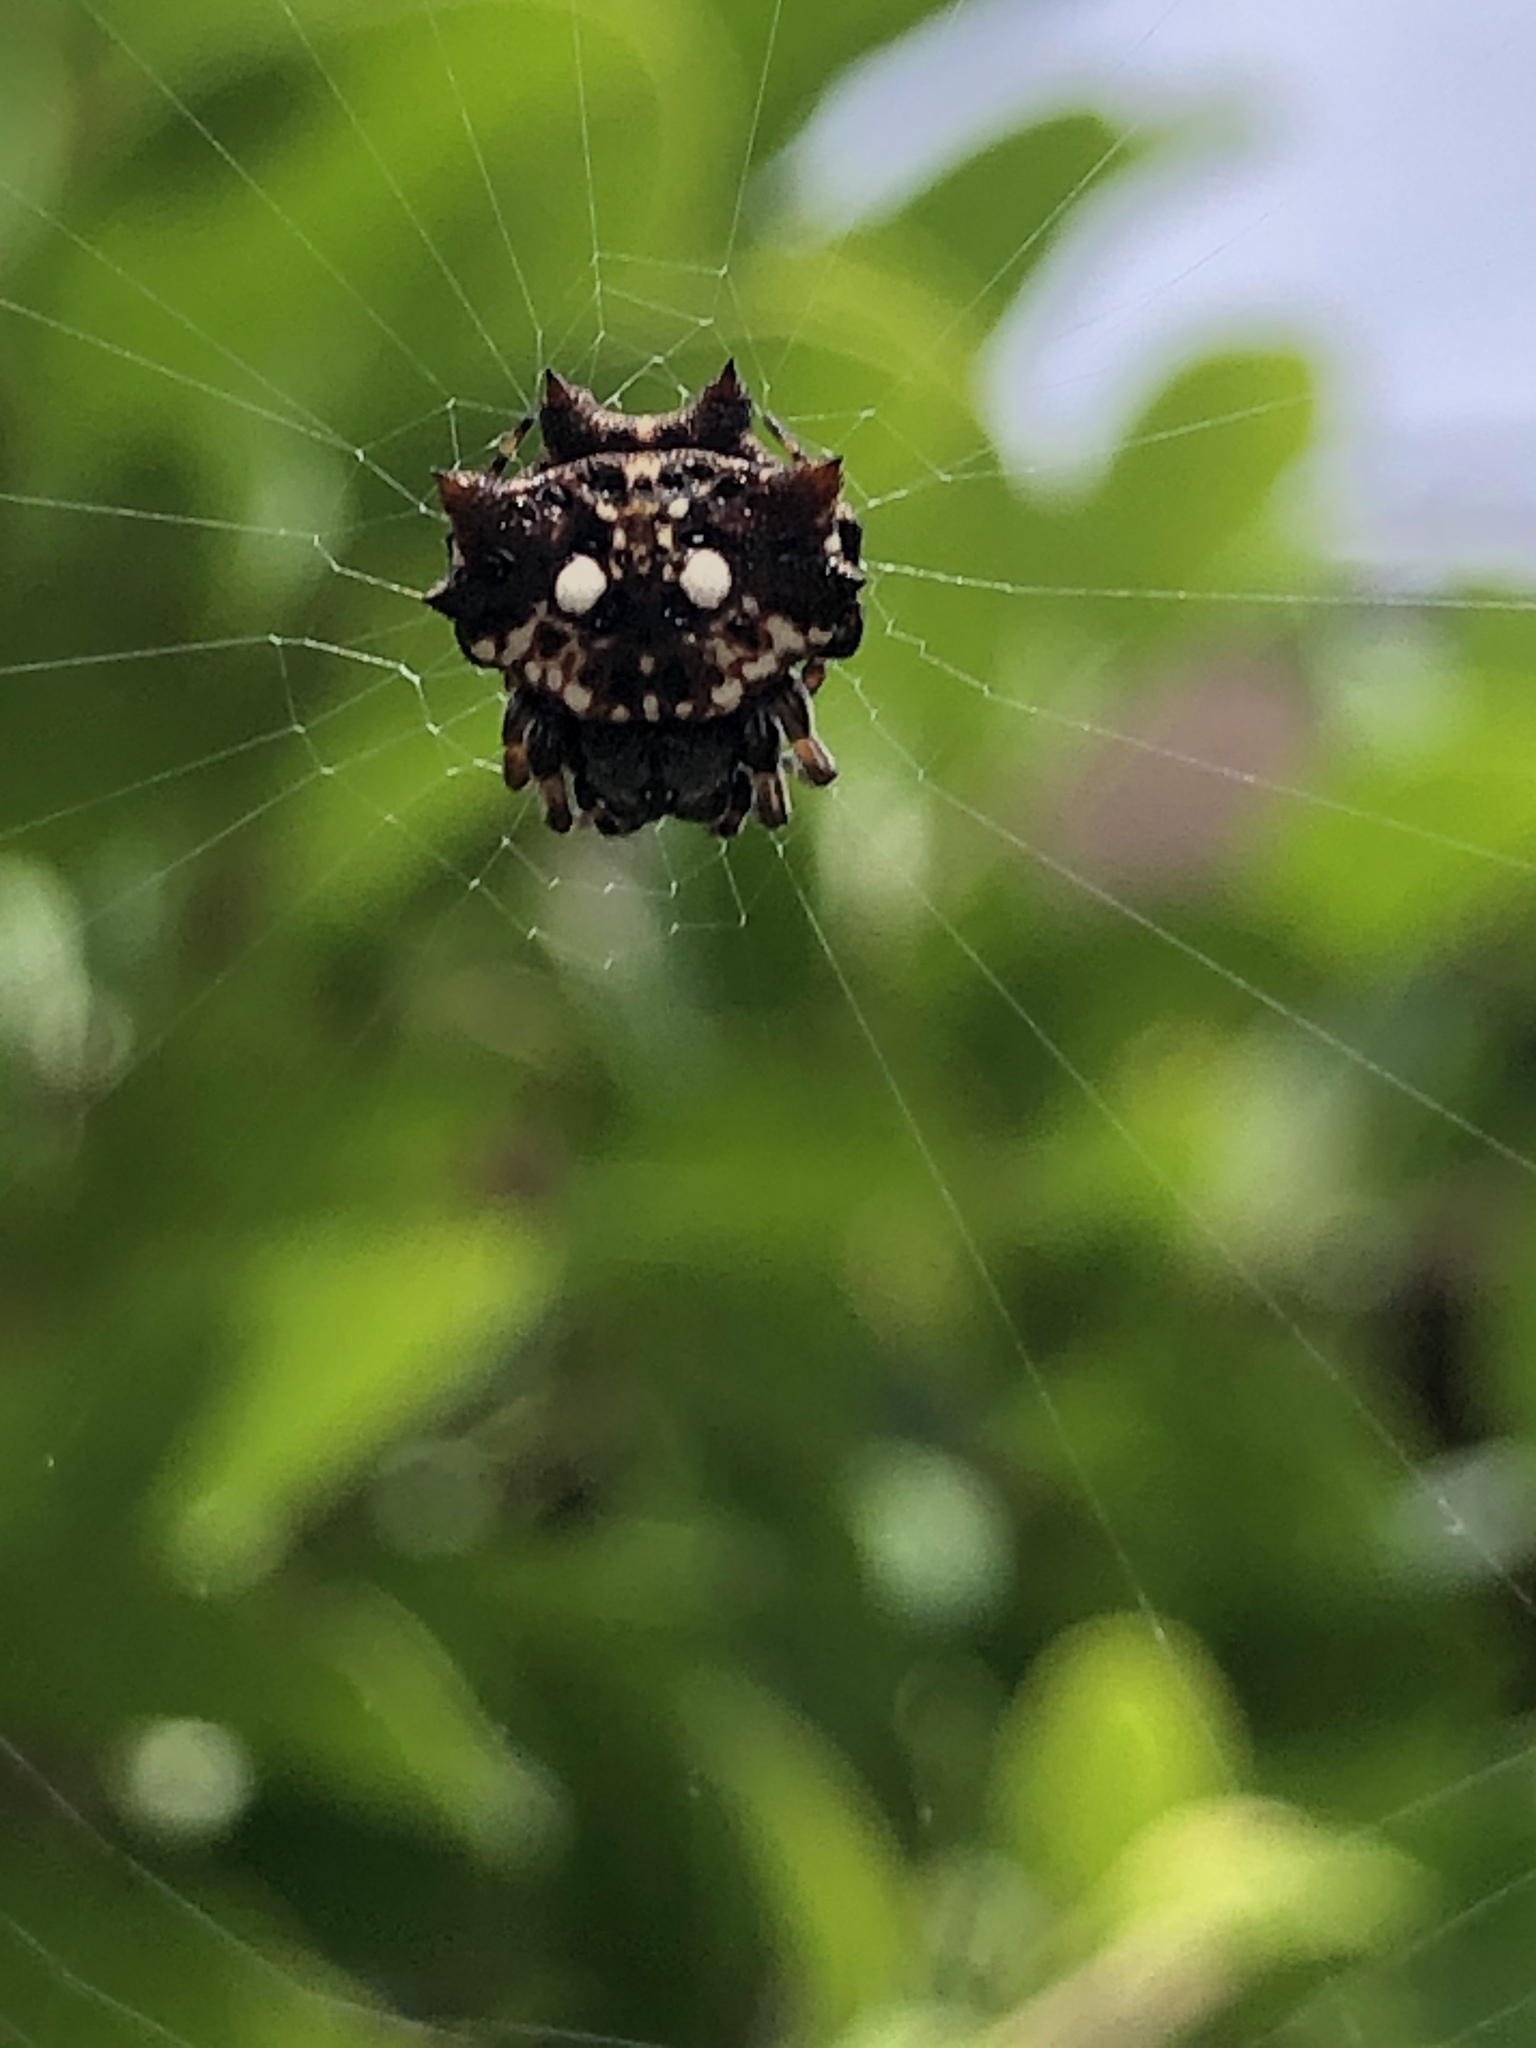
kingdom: Animalia
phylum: Arthropoda
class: Arachnida
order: Araneae
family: Araneidae
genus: Thelacantha
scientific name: Thelacantha brevispina
